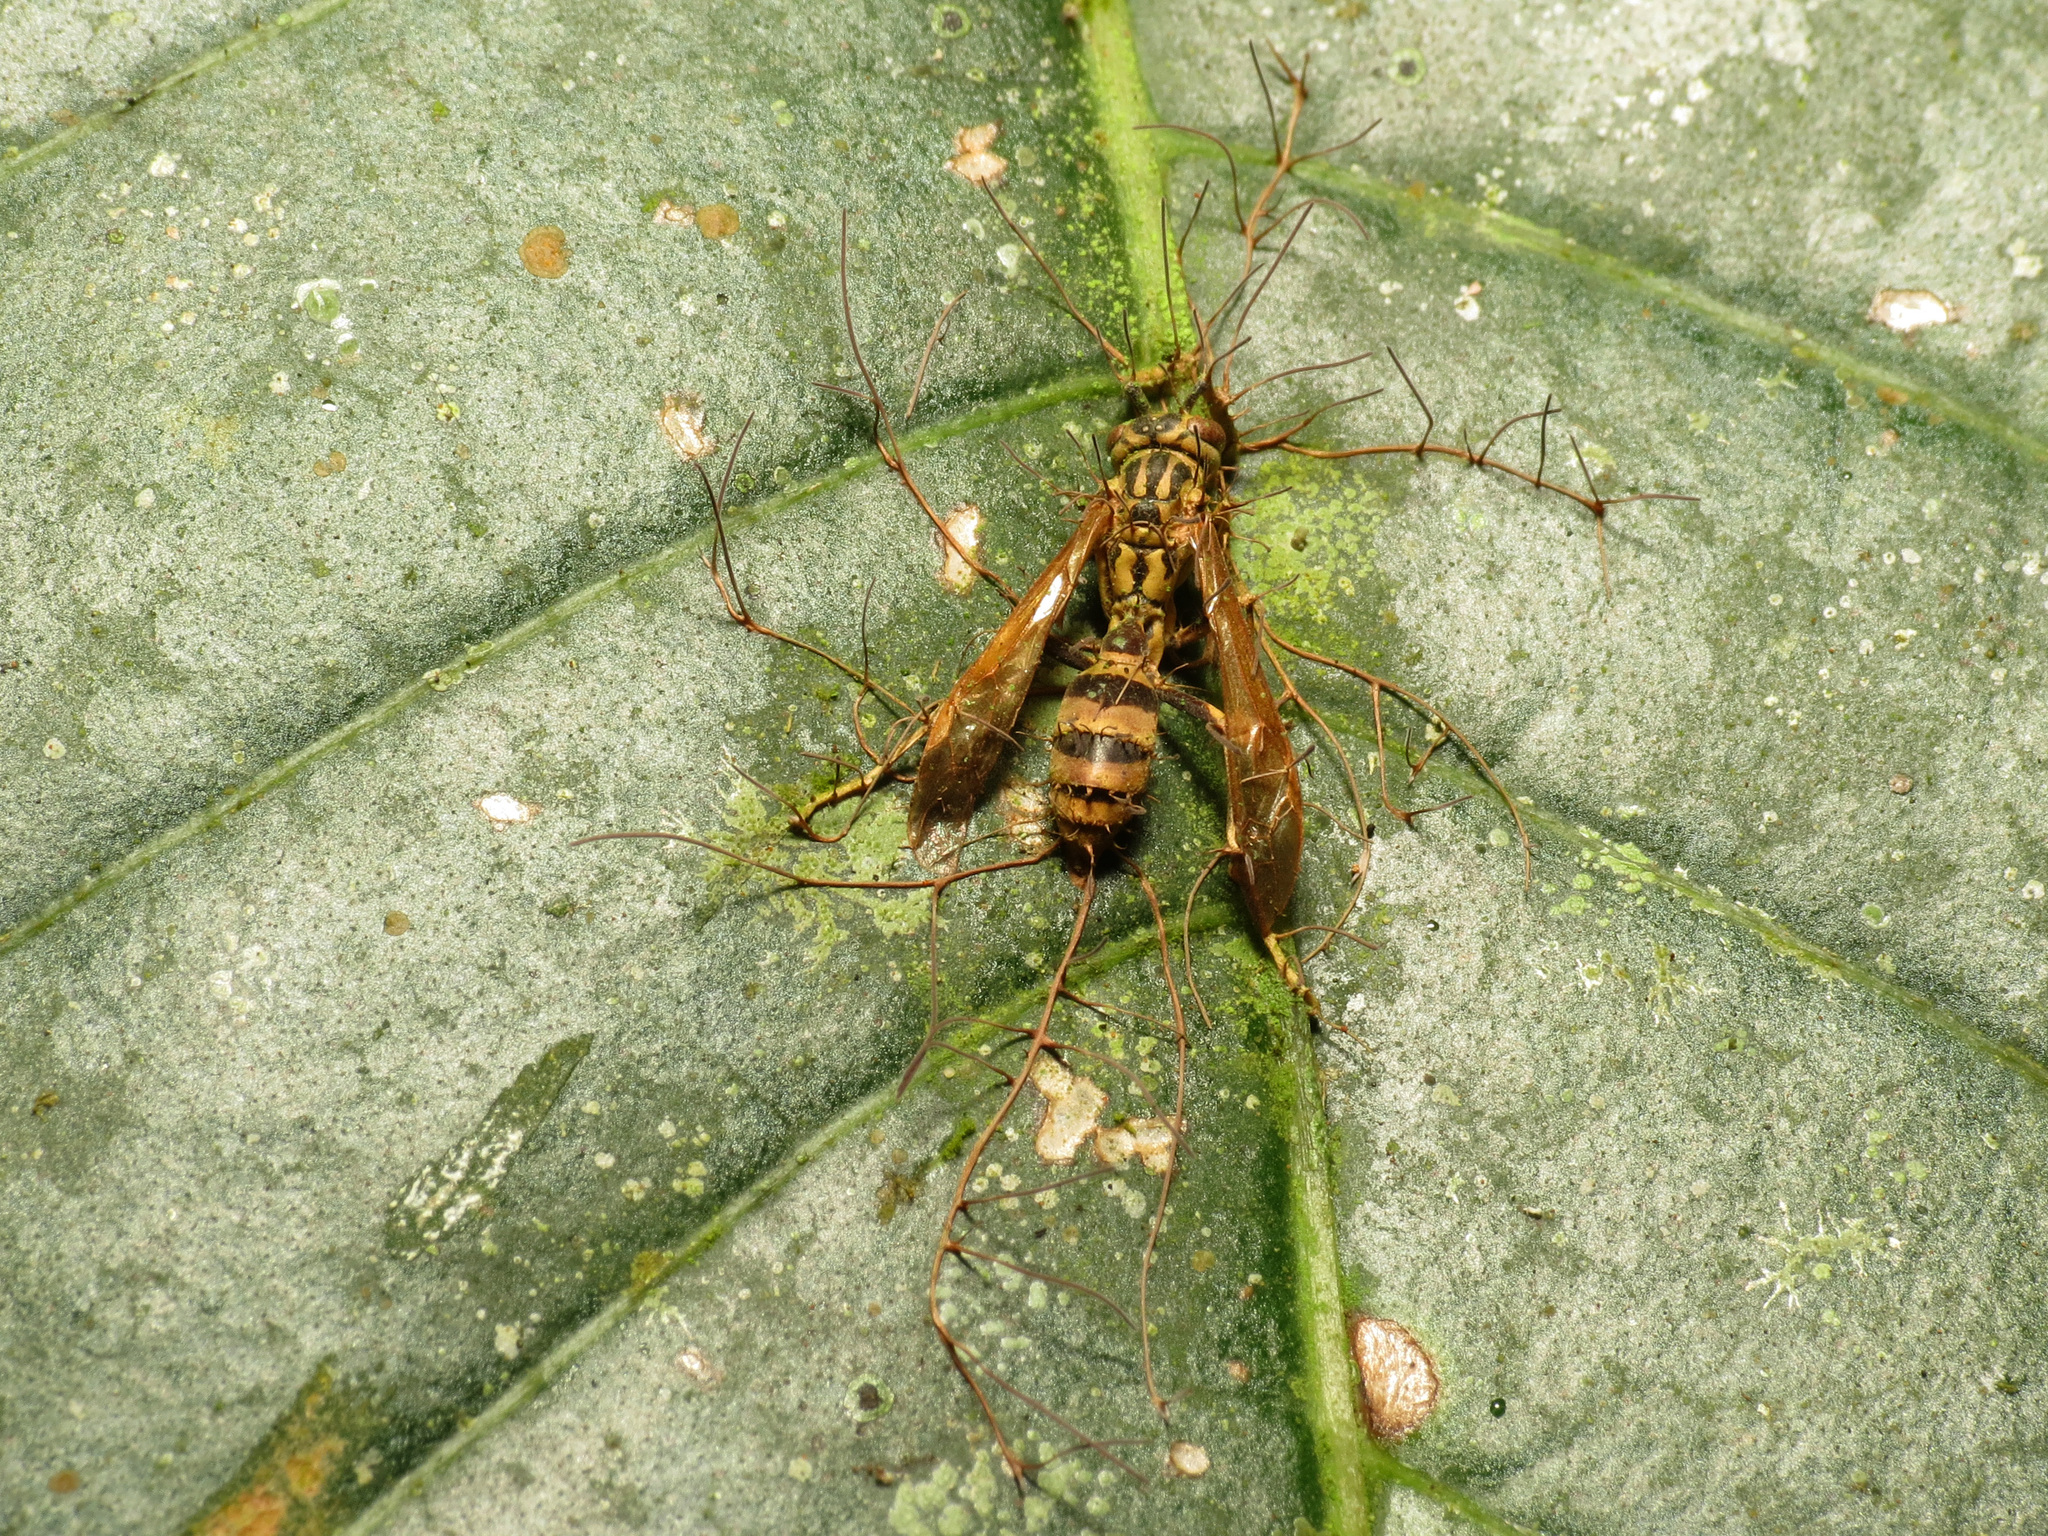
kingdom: Animalia
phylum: Arthropoda
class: Insecta
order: Hymenoptera
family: Vespidae
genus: Agelaia
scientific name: Agelaia areata
